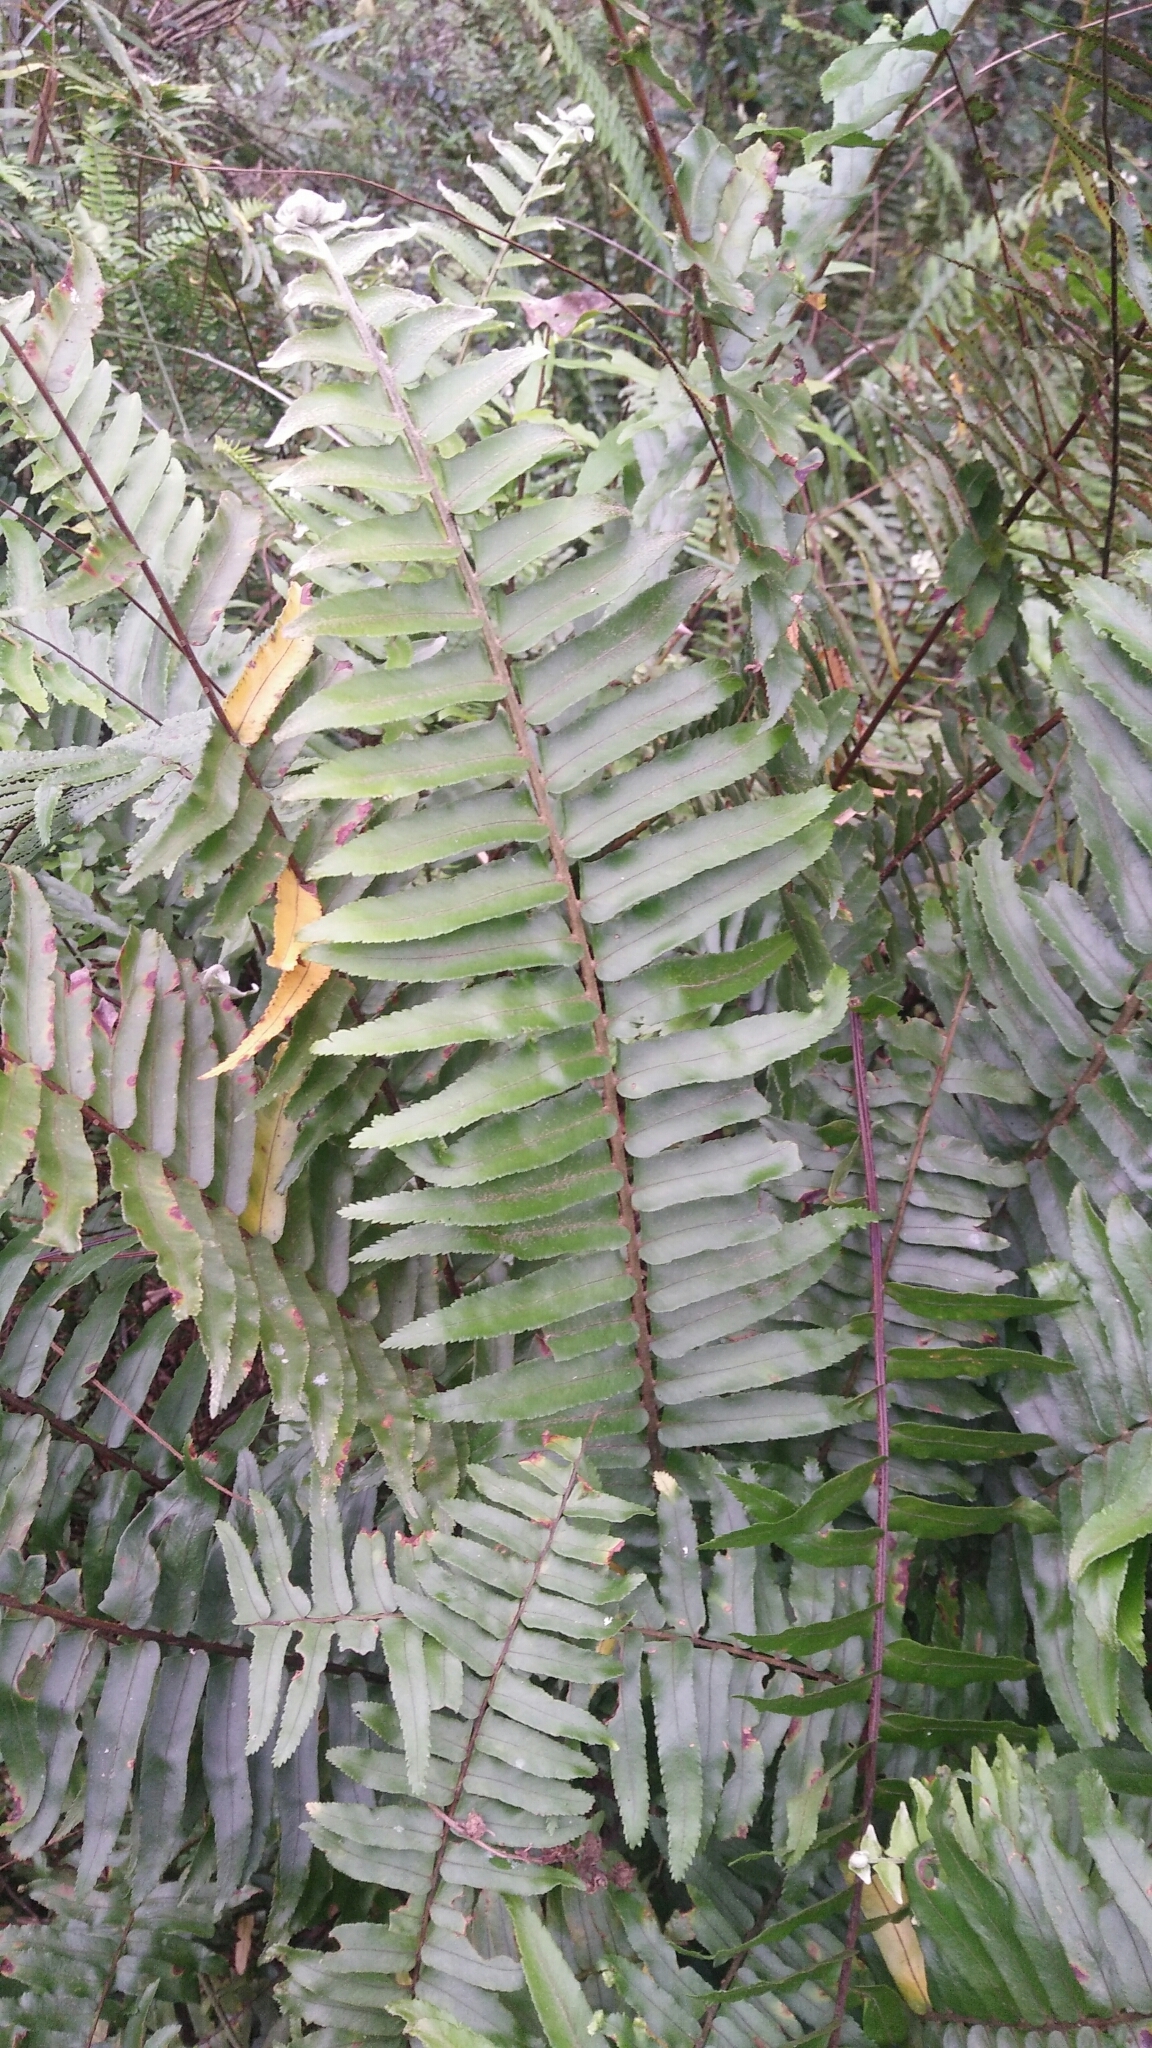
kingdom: Plantae
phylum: Tracheophyta
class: Polypodiopsida
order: Polypodiales
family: Nephrolepidaceae
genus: Nephrolepis
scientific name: Nephrolepis brownii
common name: Asian swordfern
